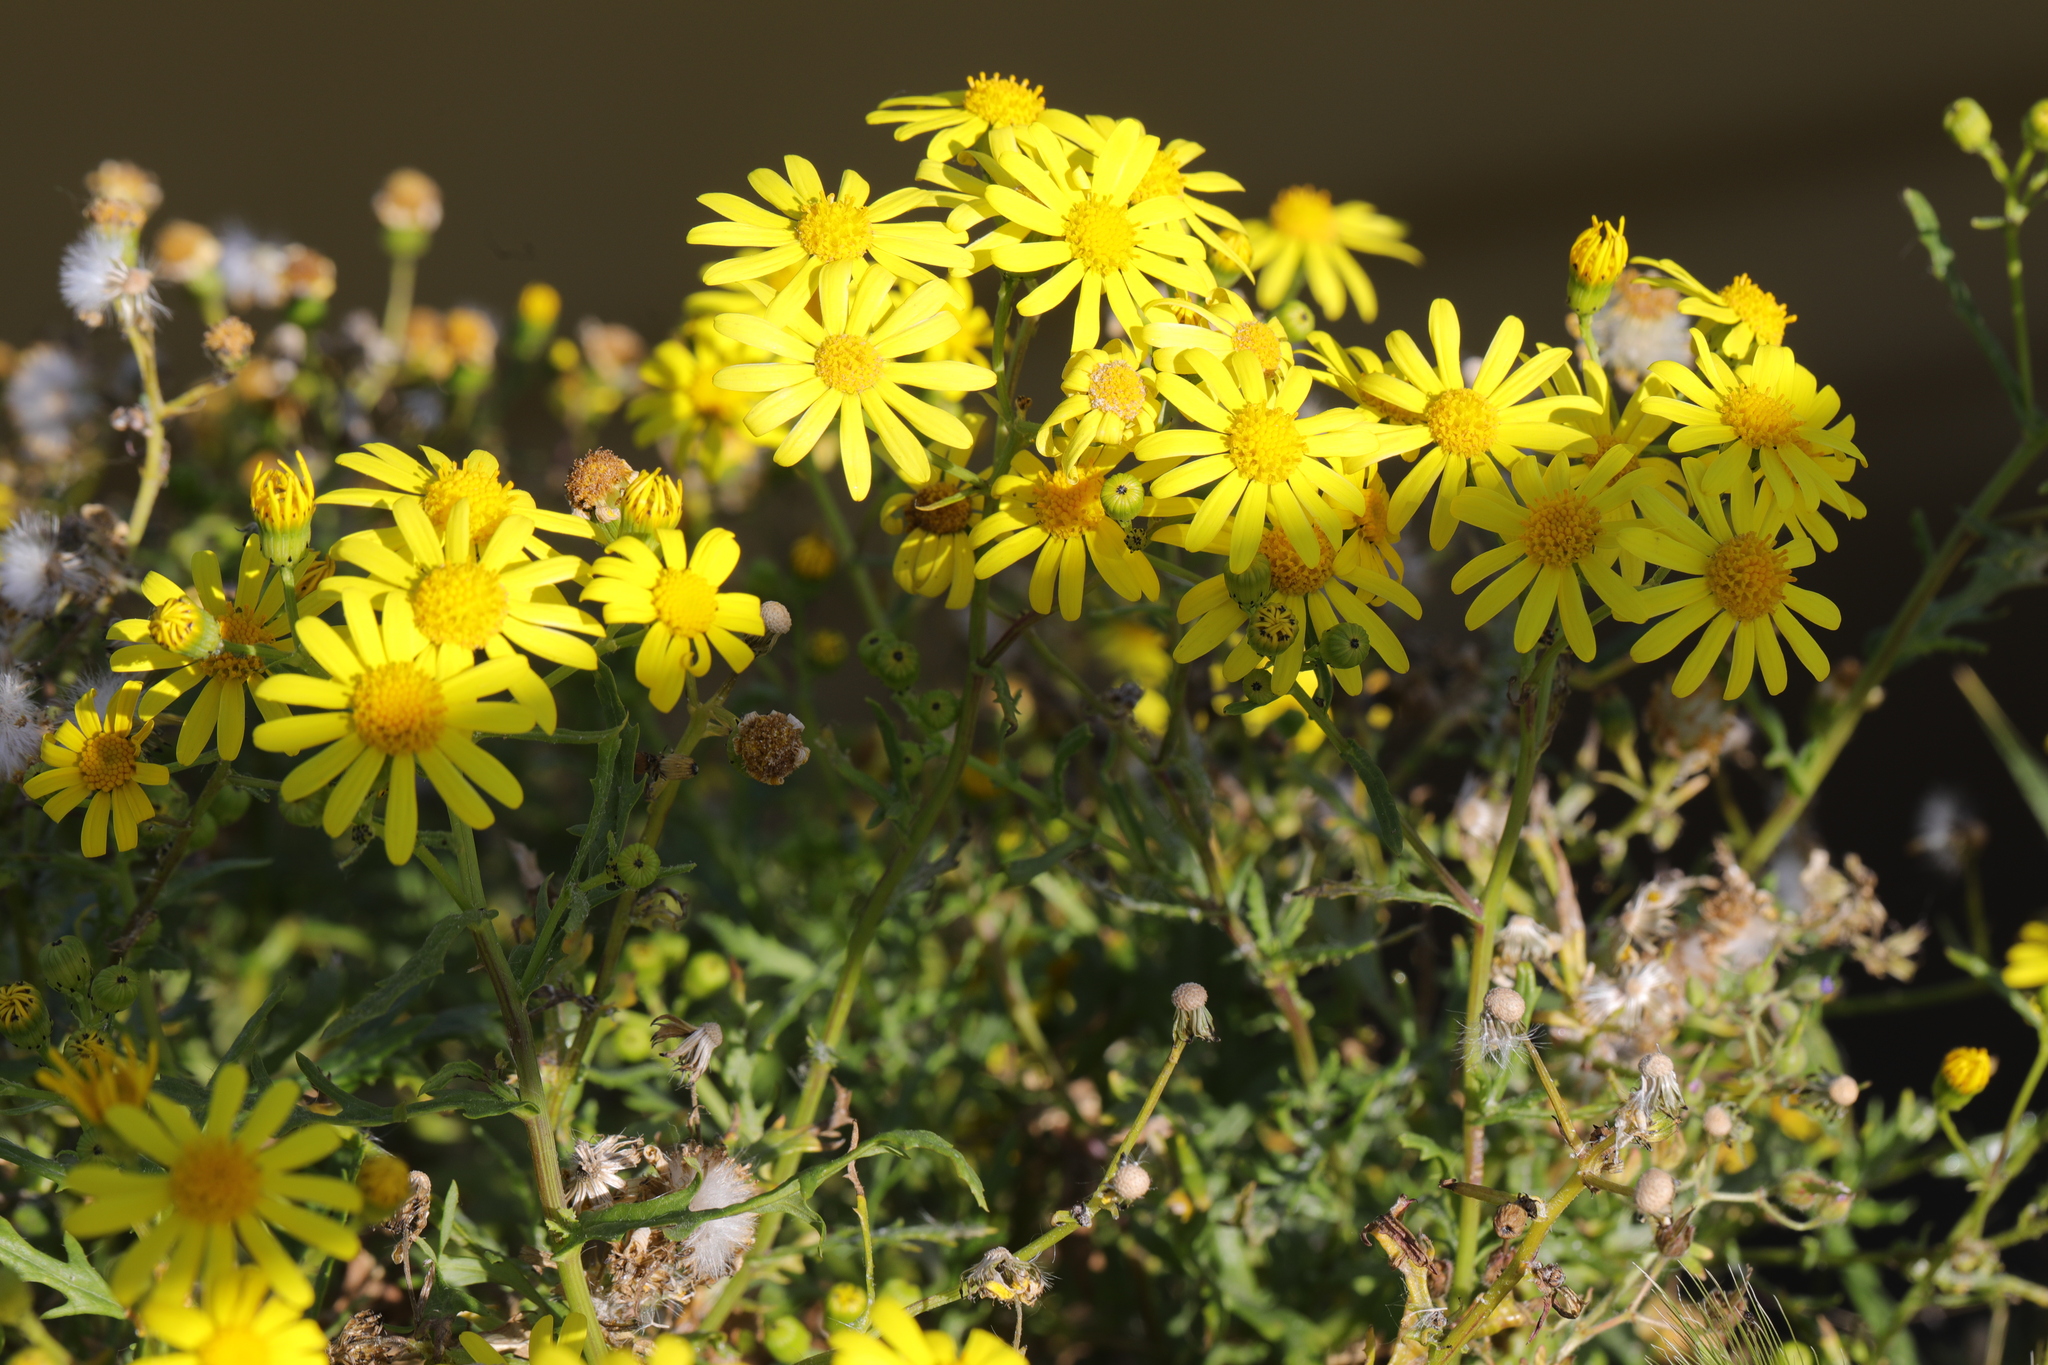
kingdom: Plantae
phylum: Tracheophyta
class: Magnoliopsida
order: Asterales
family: Asteraceae
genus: Senecio
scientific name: Senecio squalidus
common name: Oxford ragwort
